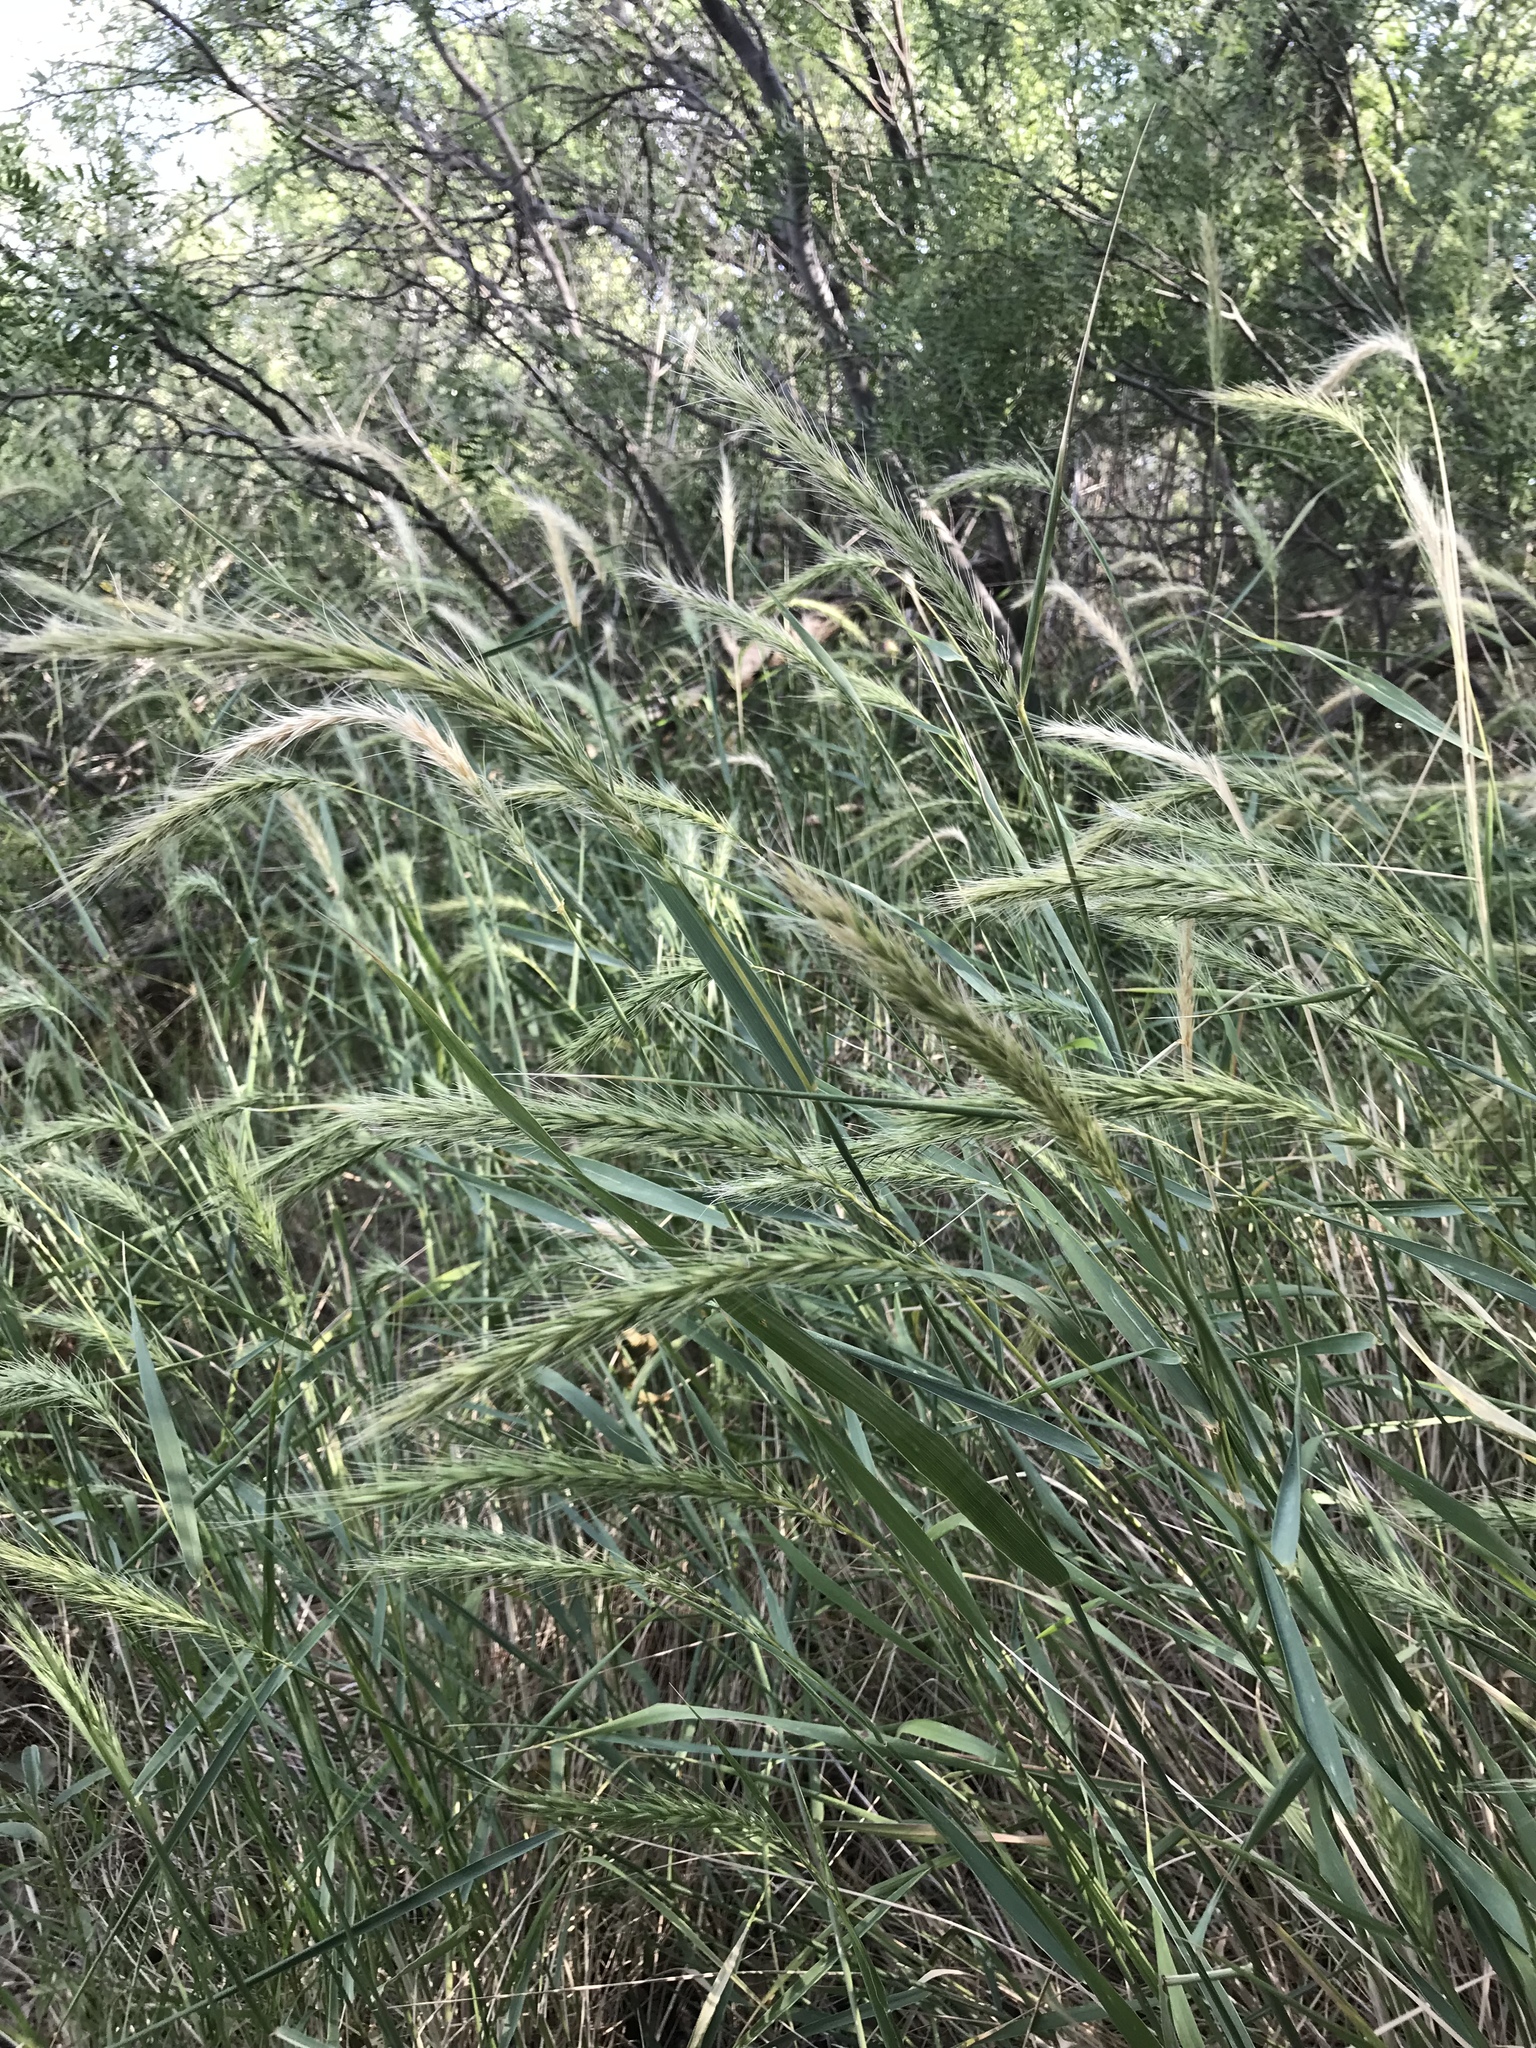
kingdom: Plantae
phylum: Tracheophyta
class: Liliopsida
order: Poales
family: Poaceae
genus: Elymus
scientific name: Elymus canadensis
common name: Canada wild rye
